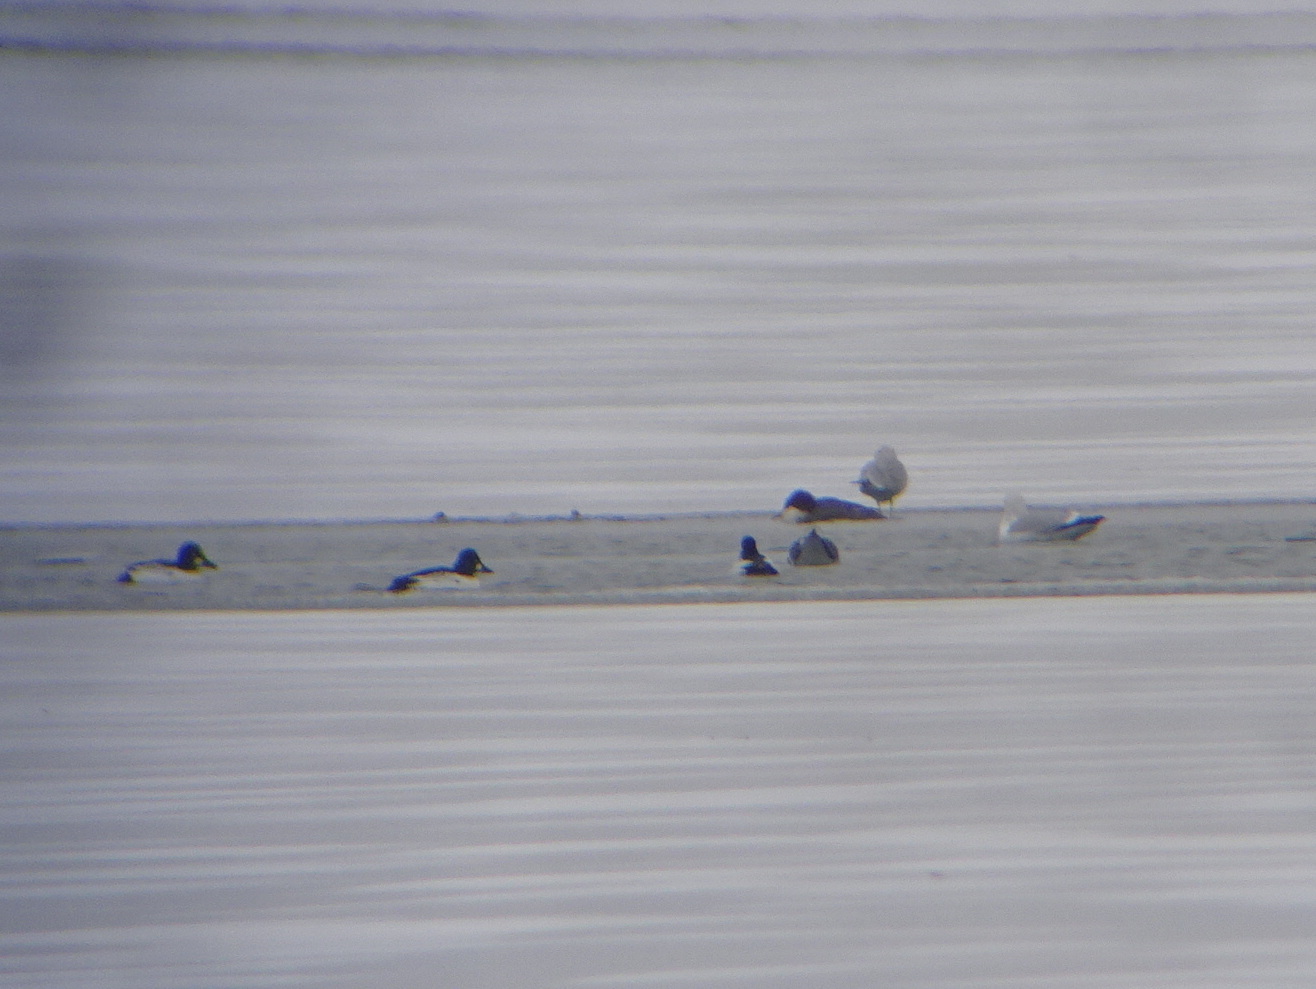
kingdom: Animalia
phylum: Chordata
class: Aves
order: Anseriformes
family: Anatidae
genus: Bucephala
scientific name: Bucephala clangula
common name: Common goldeneye
